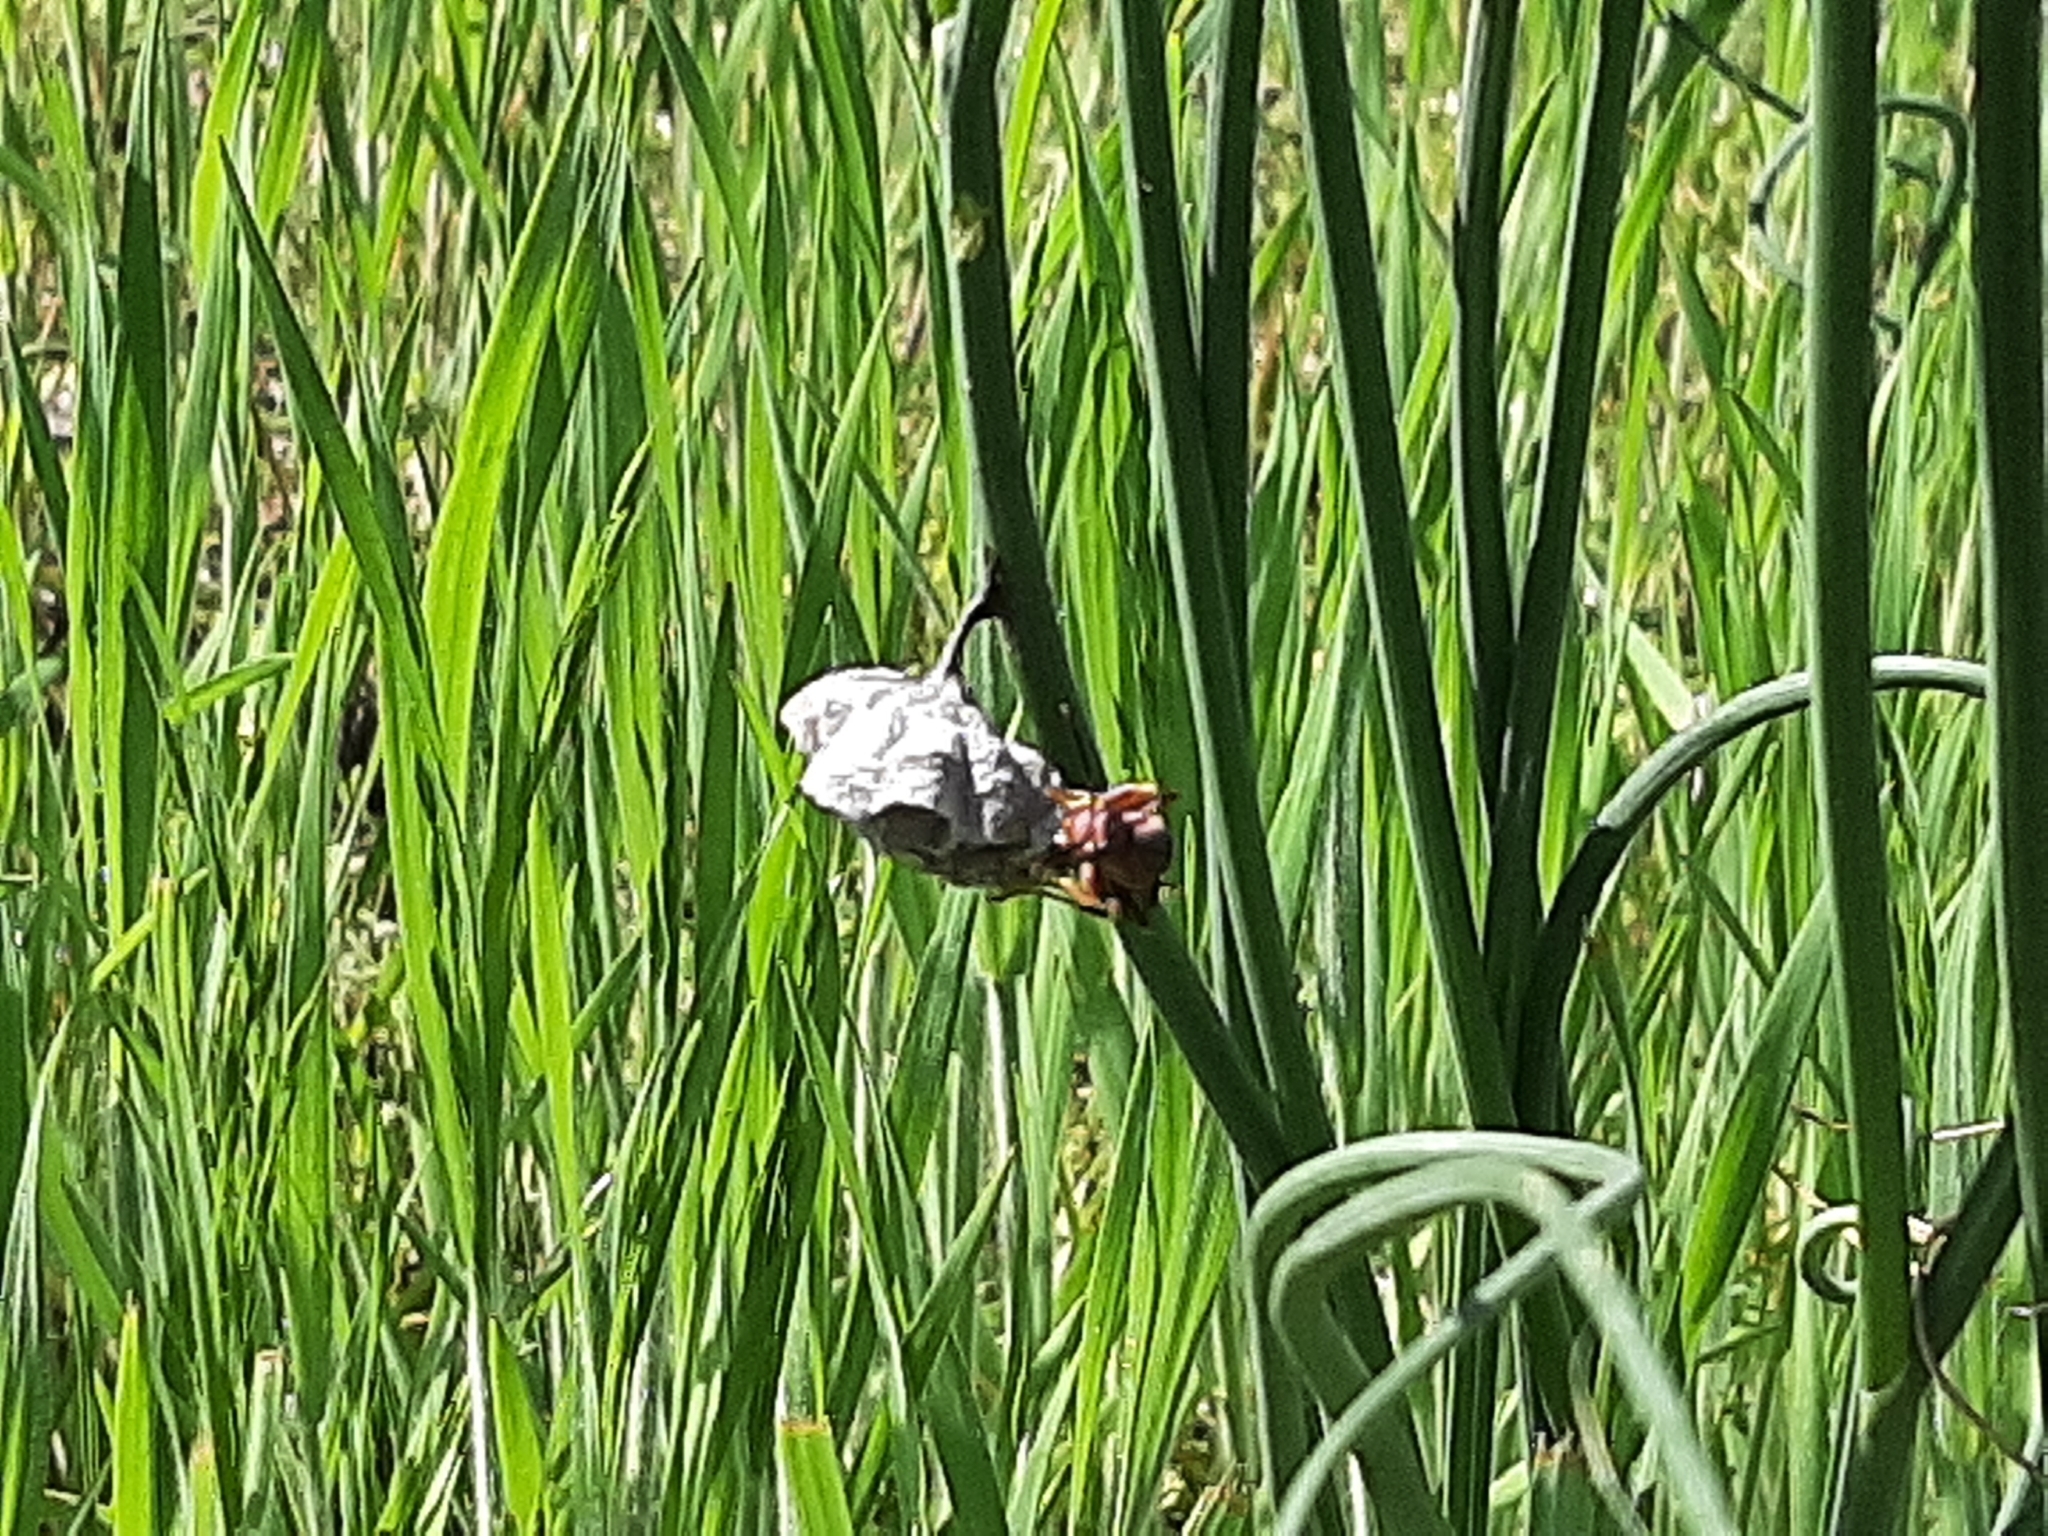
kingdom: Animalia
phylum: Arthropoda
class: Insecta
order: Hymenoptera
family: Eumenidae
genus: Polistes
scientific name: Polistes metricus
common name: Metric paper wasp
